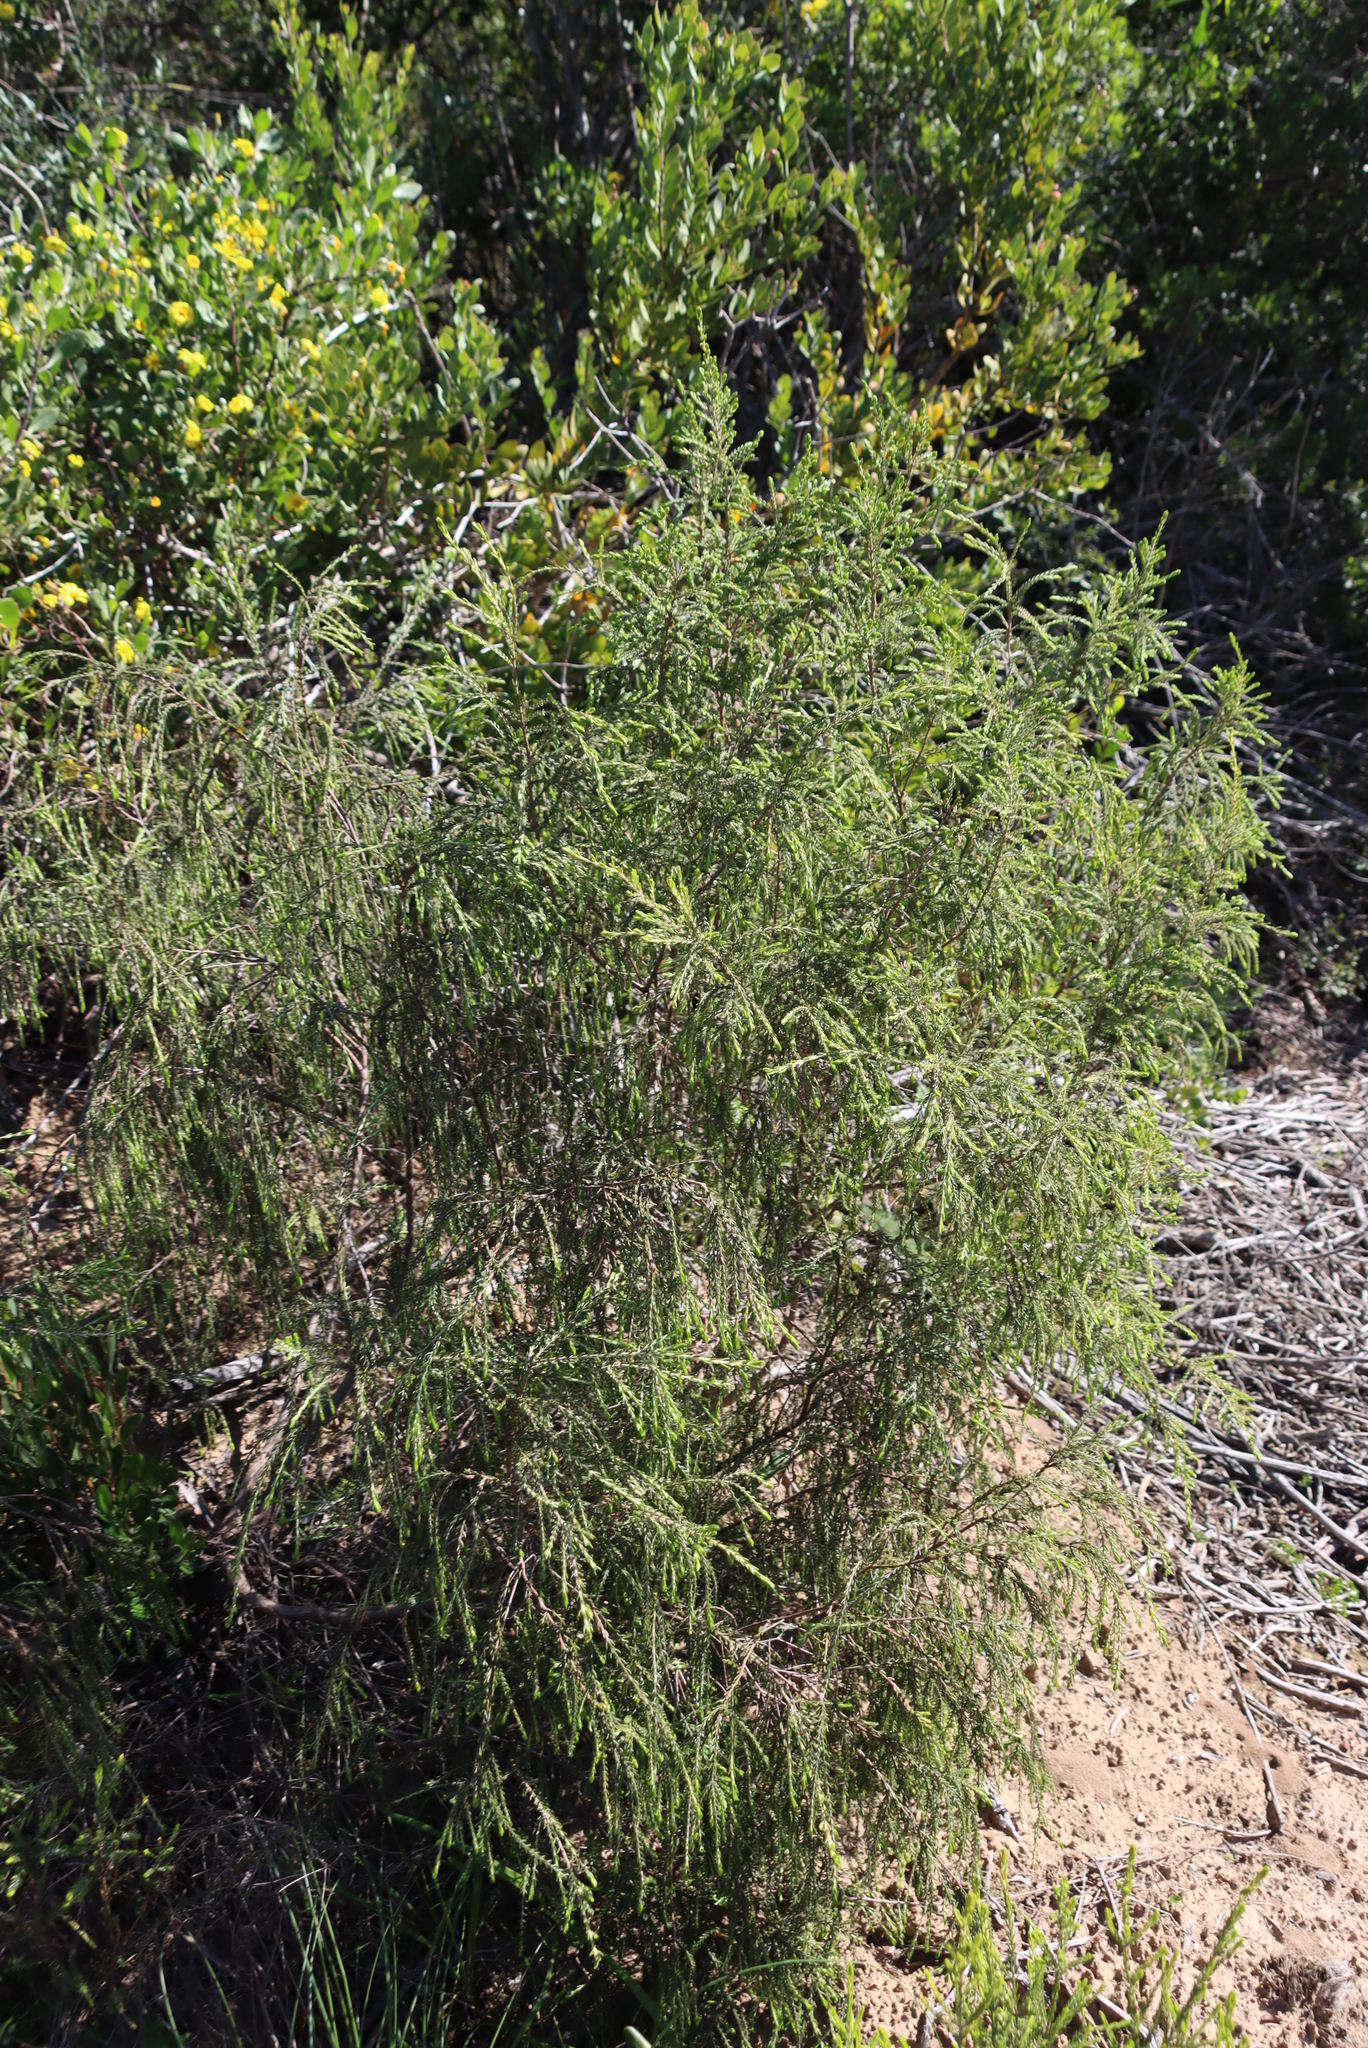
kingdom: Plantae
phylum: Tracheophyta
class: Magnoliopsida
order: Malvales
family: Thymelaeaceae
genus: Passerina
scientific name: Passerina falcifolia
